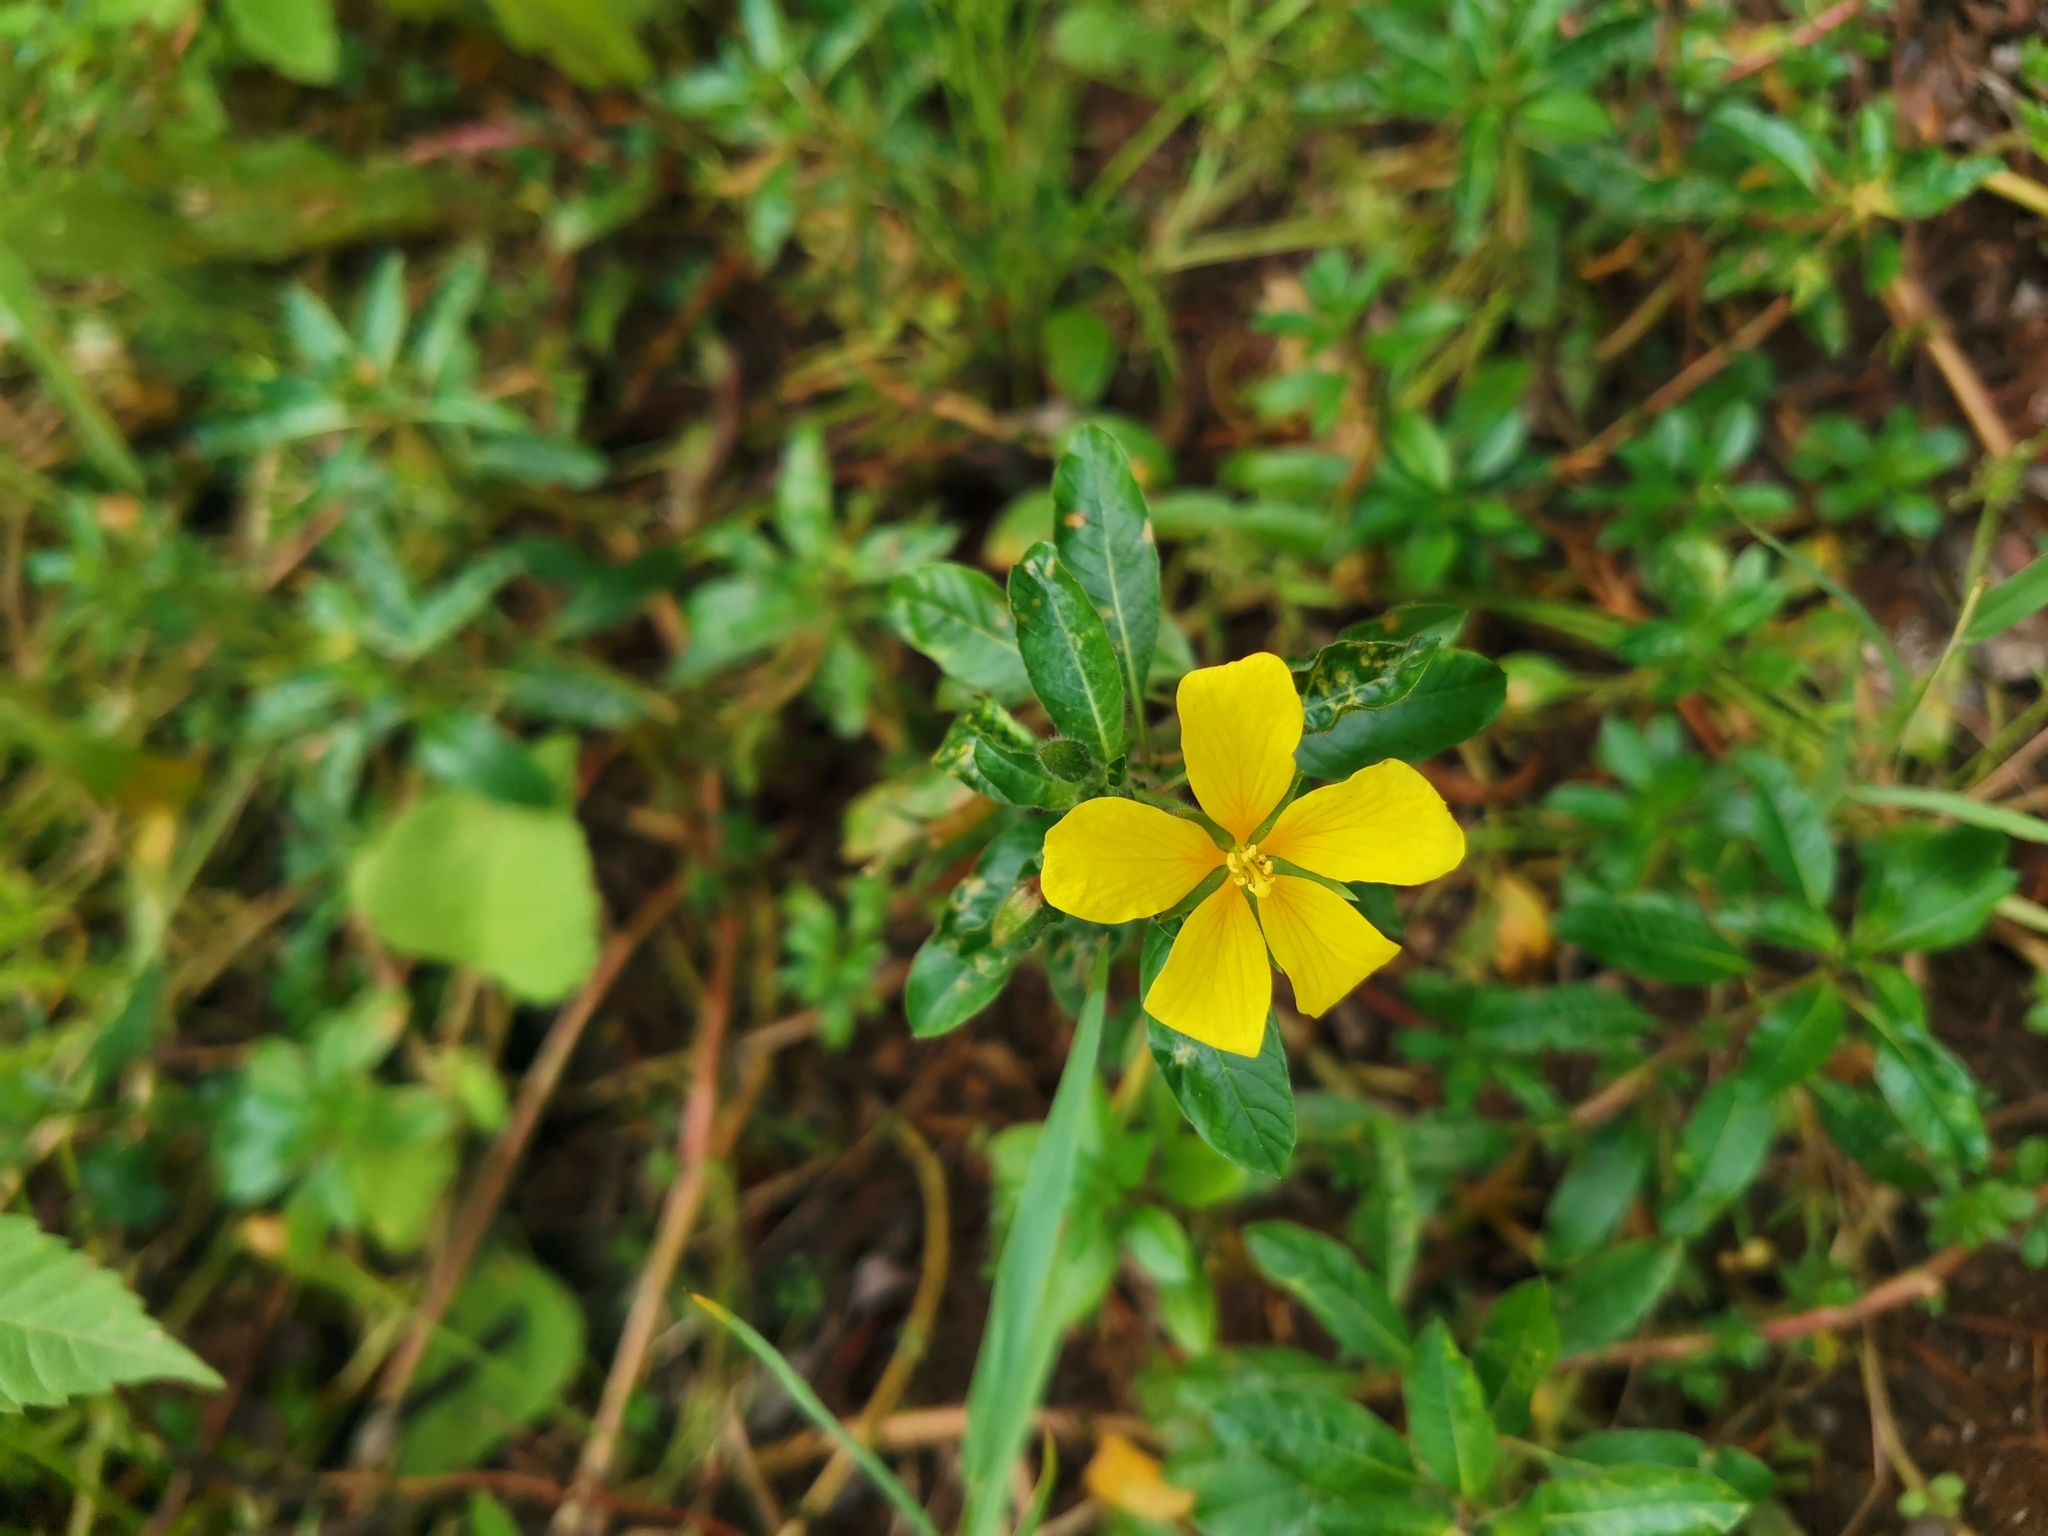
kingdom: Plantae
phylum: Tracheophyta
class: Magnoliopsida
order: Myrtales
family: Onagraceae
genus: Ludwigia
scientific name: Ludwigia peploides
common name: Floating primrose-willow
